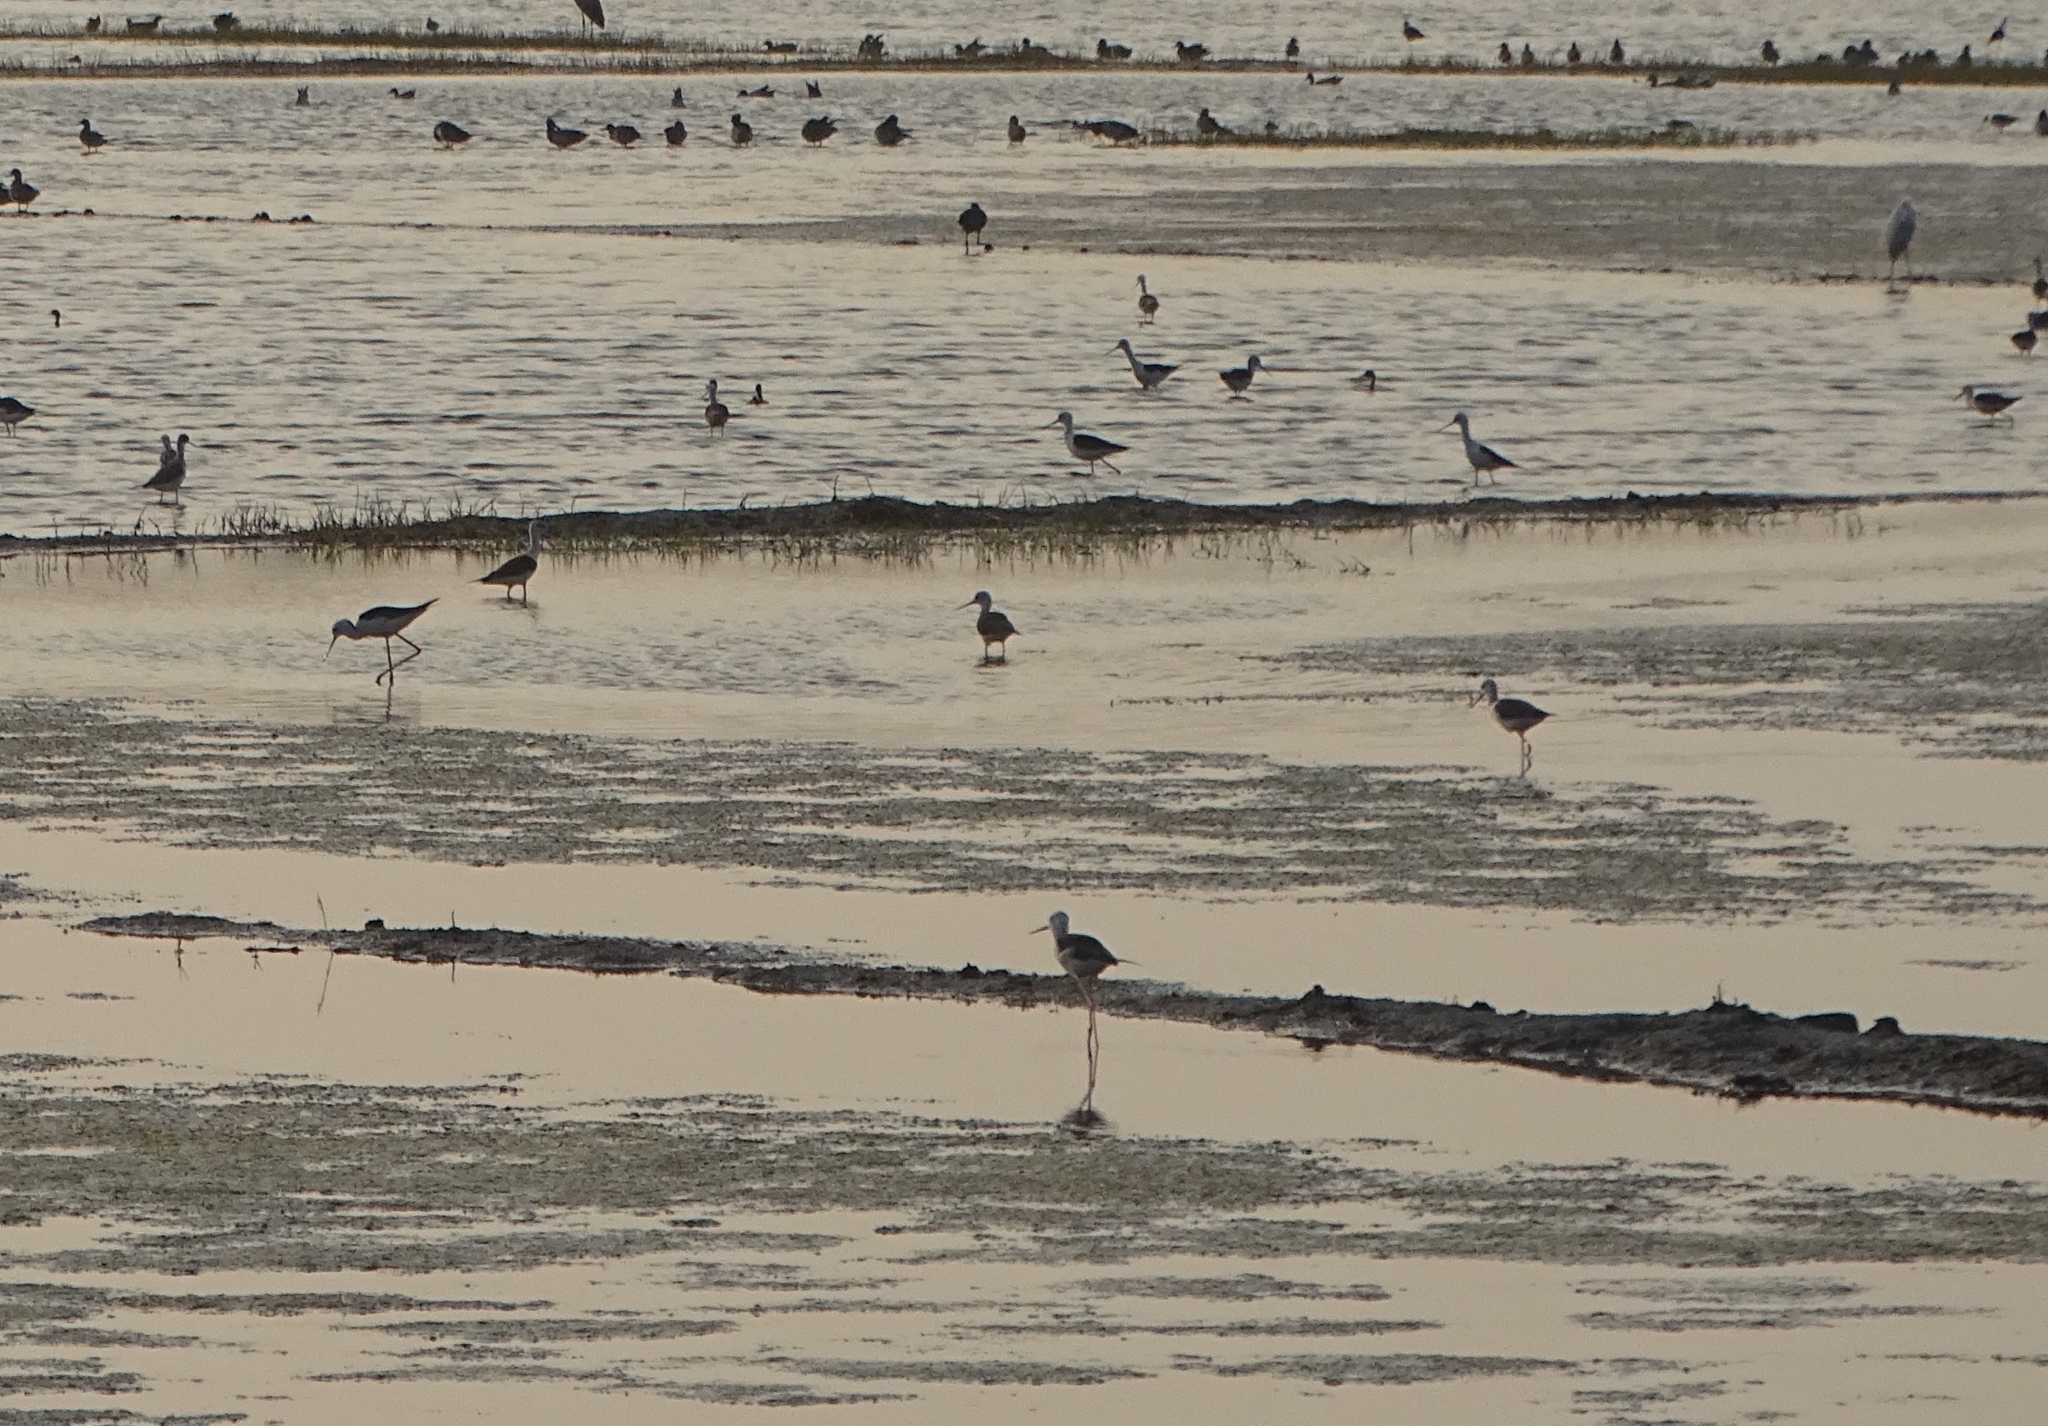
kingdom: Animalia
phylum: Chordata
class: Aves
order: Charadriiformes
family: Recurvirostridae
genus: Himantopus
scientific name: Himantopus himantopus
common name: Black-winged stilt
